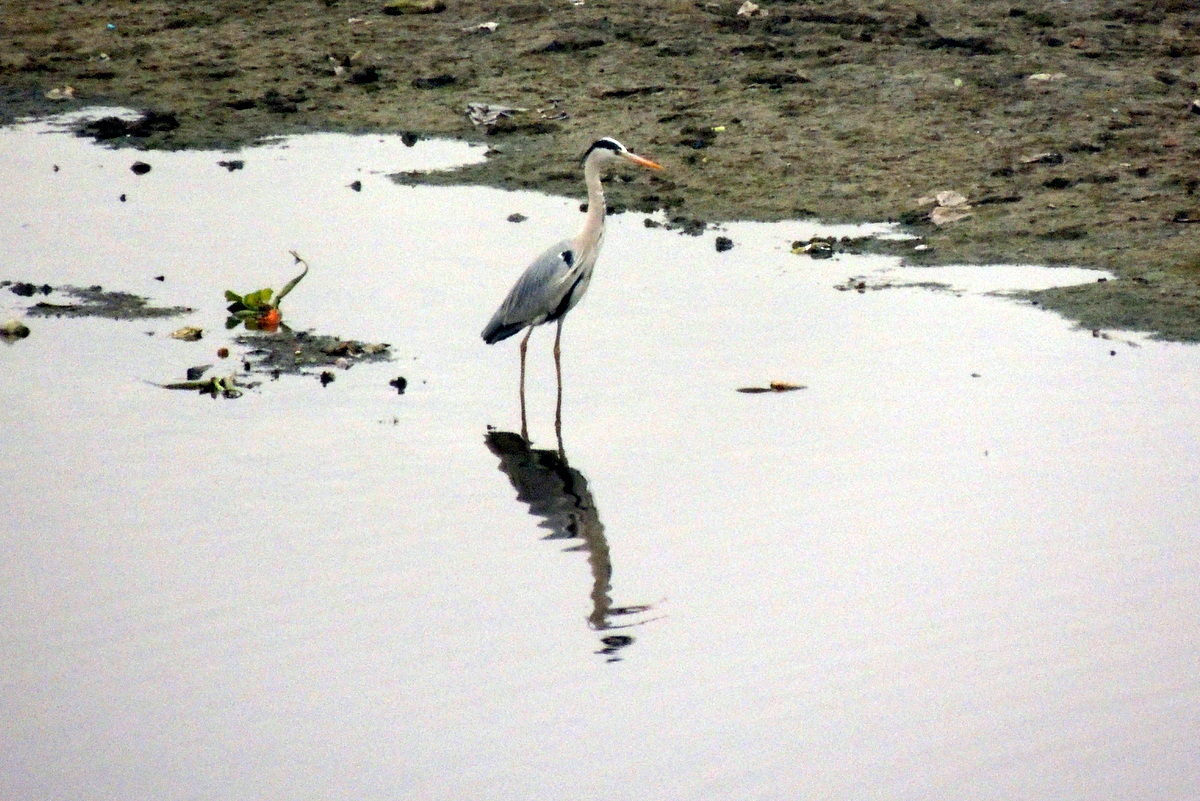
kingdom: Animalia
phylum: Chordata
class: Aves
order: Pelecaniformes
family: Ardeidae
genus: Ardea
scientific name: Ardea cinerea
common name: Grey heron
